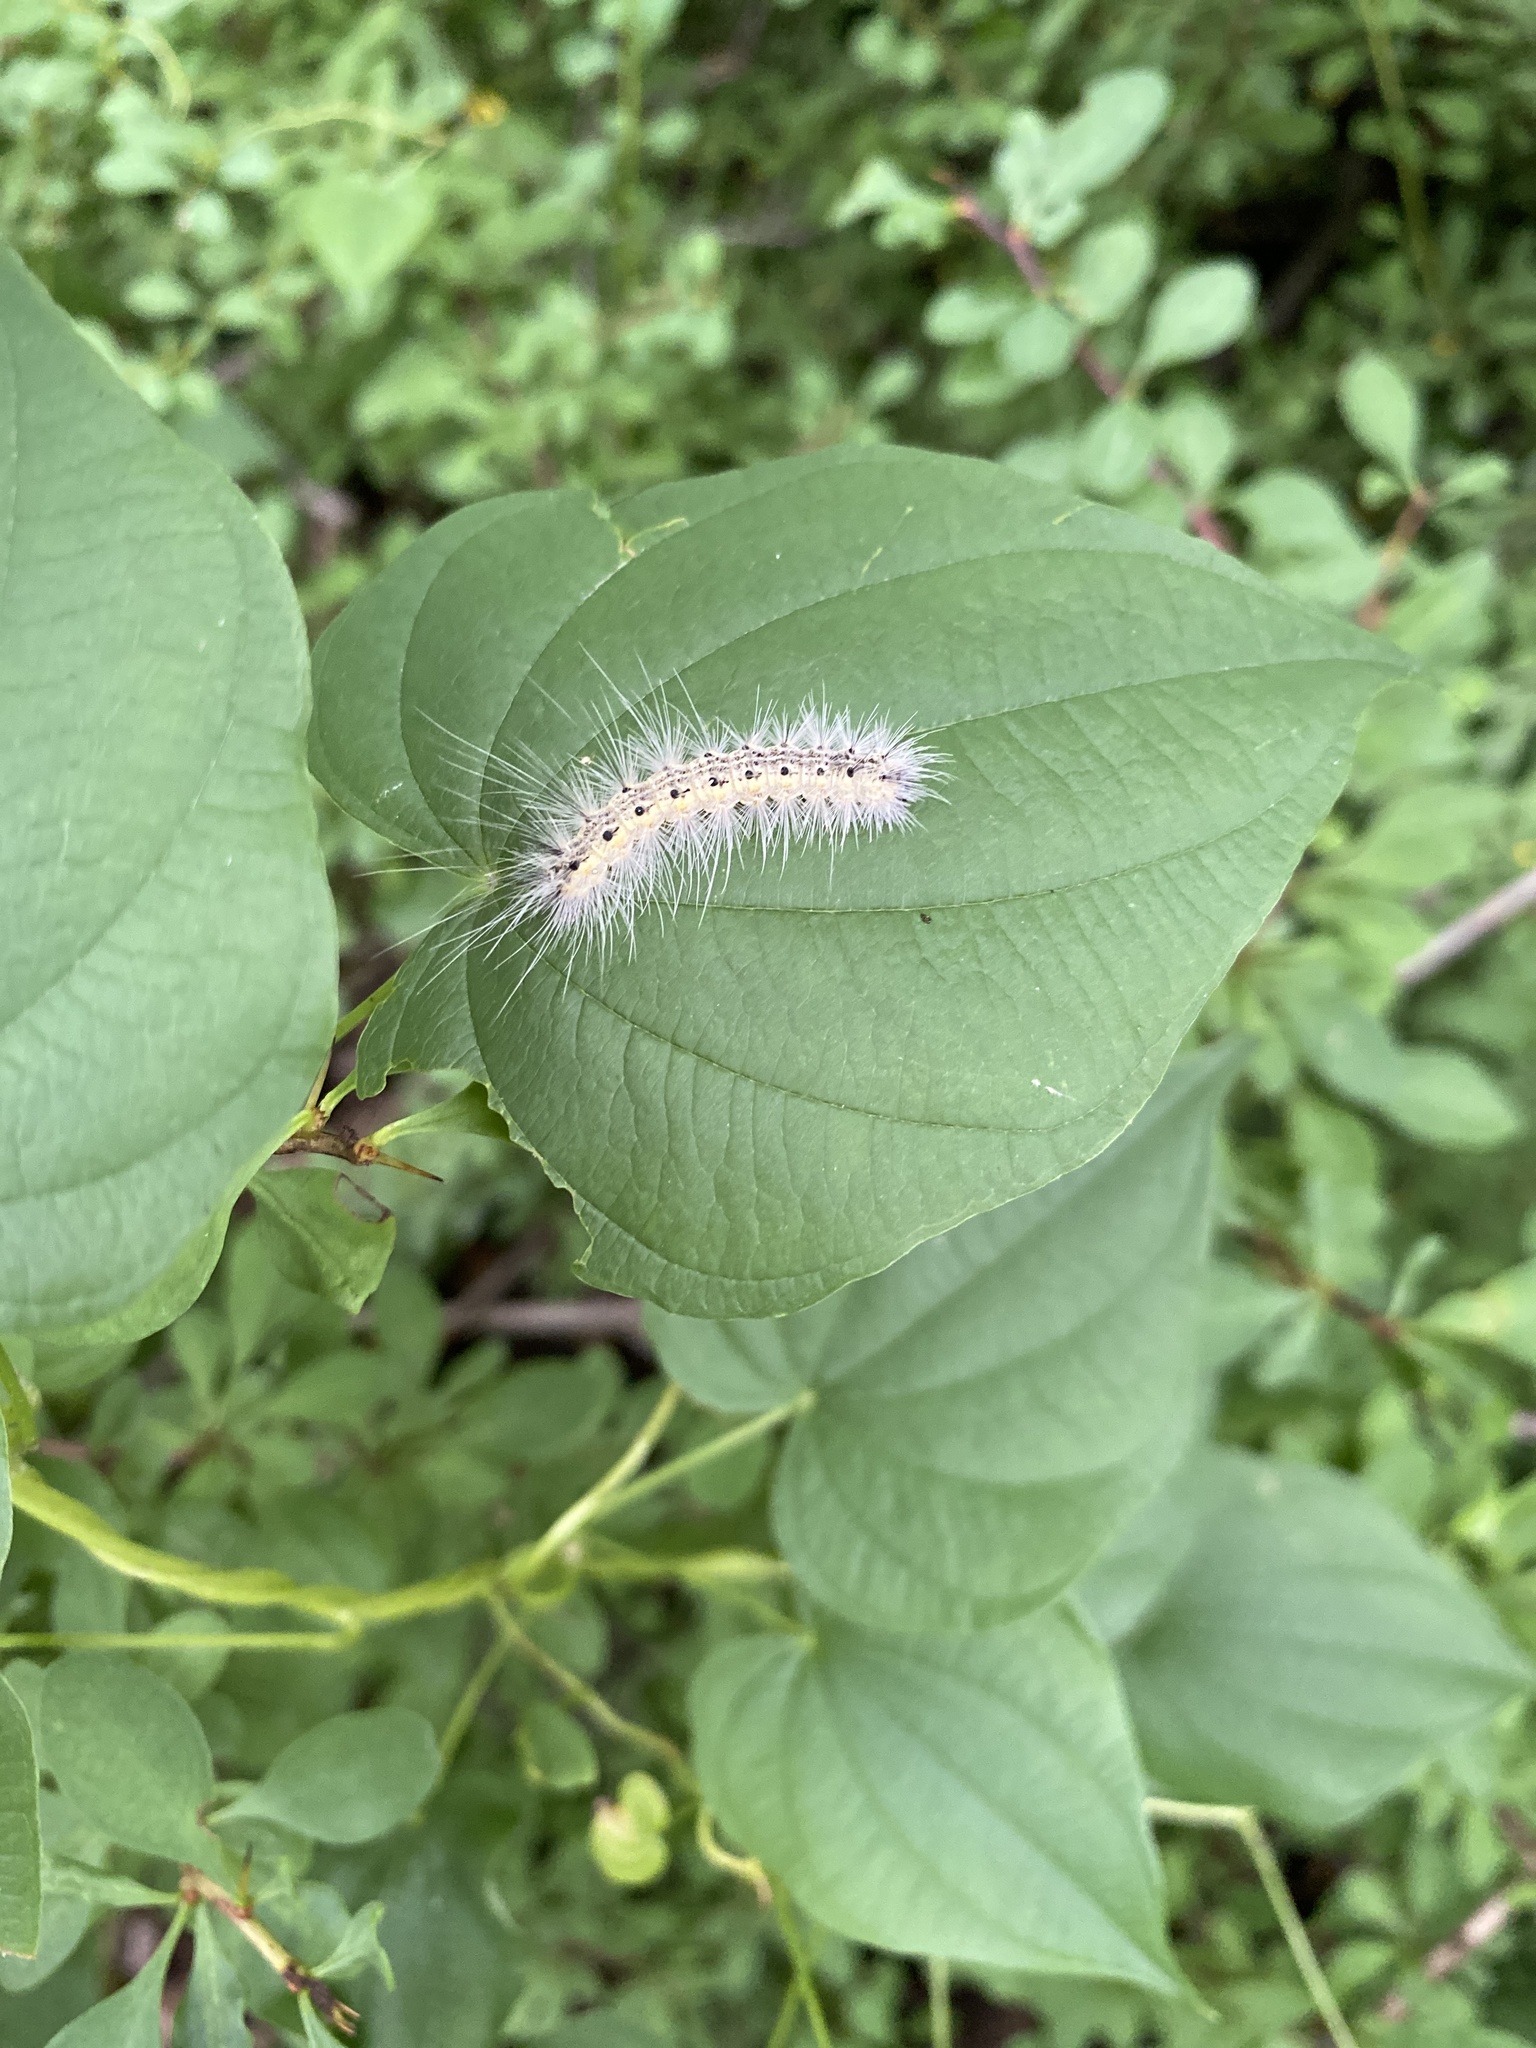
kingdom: Animalia
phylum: Arthropoda
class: Insecta
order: Lepidoptera
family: Erebidae
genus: Hyphantria
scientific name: Hyphantria cunea
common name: American white moth
